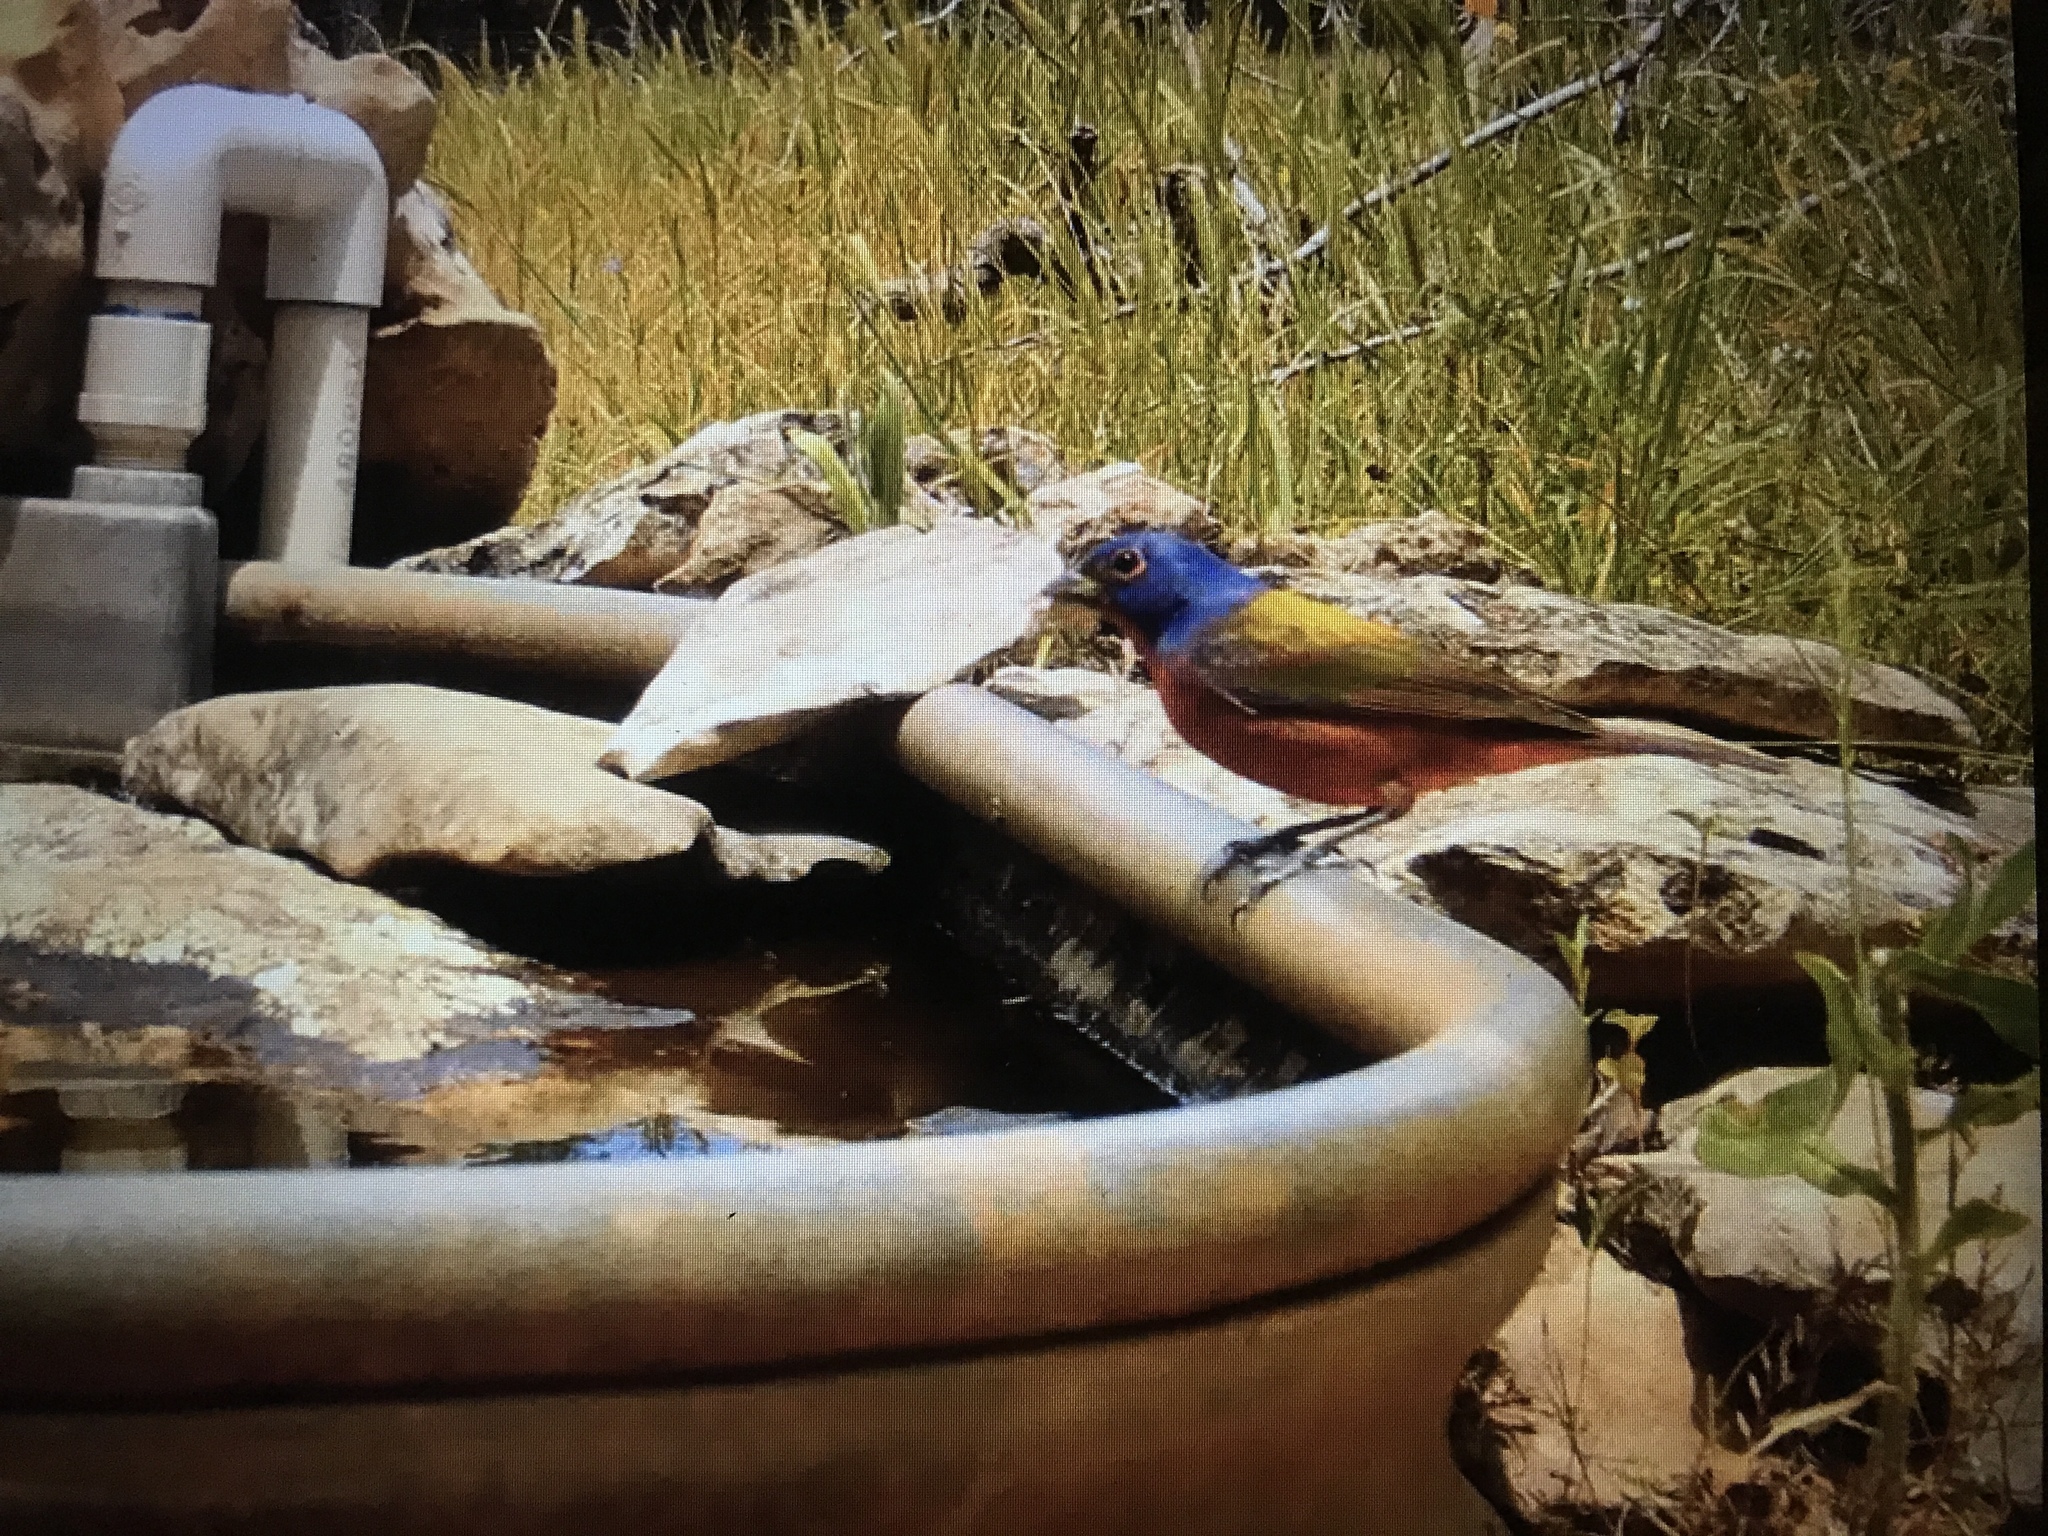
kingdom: Animalia
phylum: Chordata
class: Aves
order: Passeriformes
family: Cardinalidae
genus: Passerina
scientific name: Passerina ciris
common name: Painted bunting
